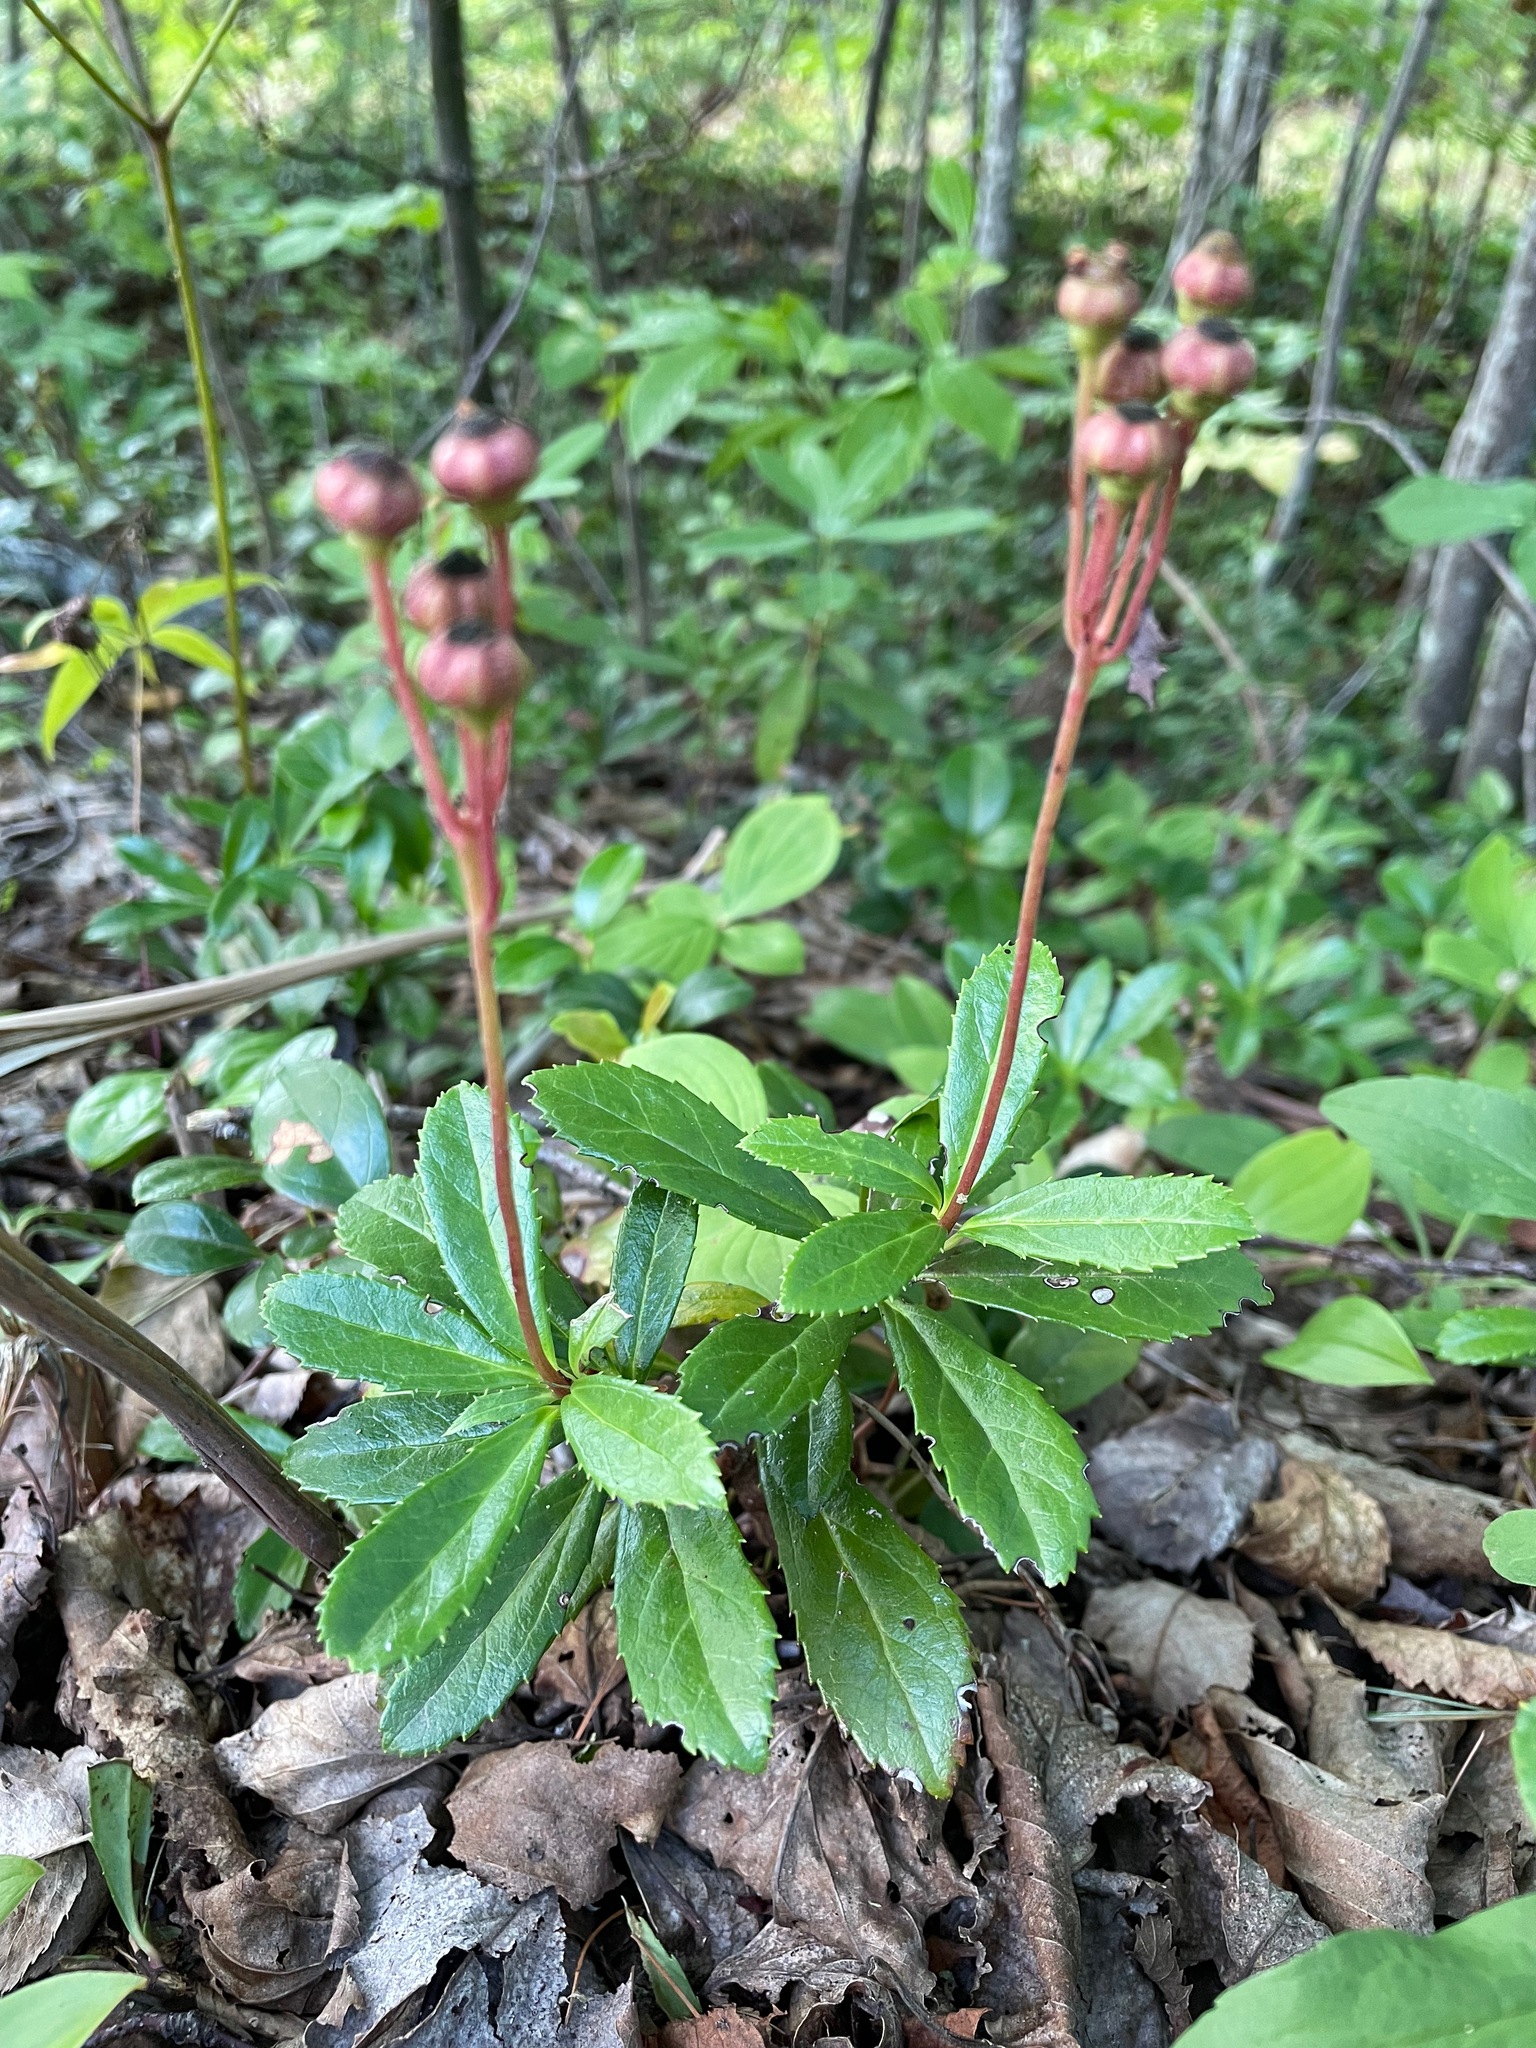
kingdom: Plantae
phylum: Tracheophyta
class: Magnoliopsida
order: Ericales
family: Ericaceae
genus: Chimaphila
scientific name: Chimaphila umbellata
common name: Pipsissewa
